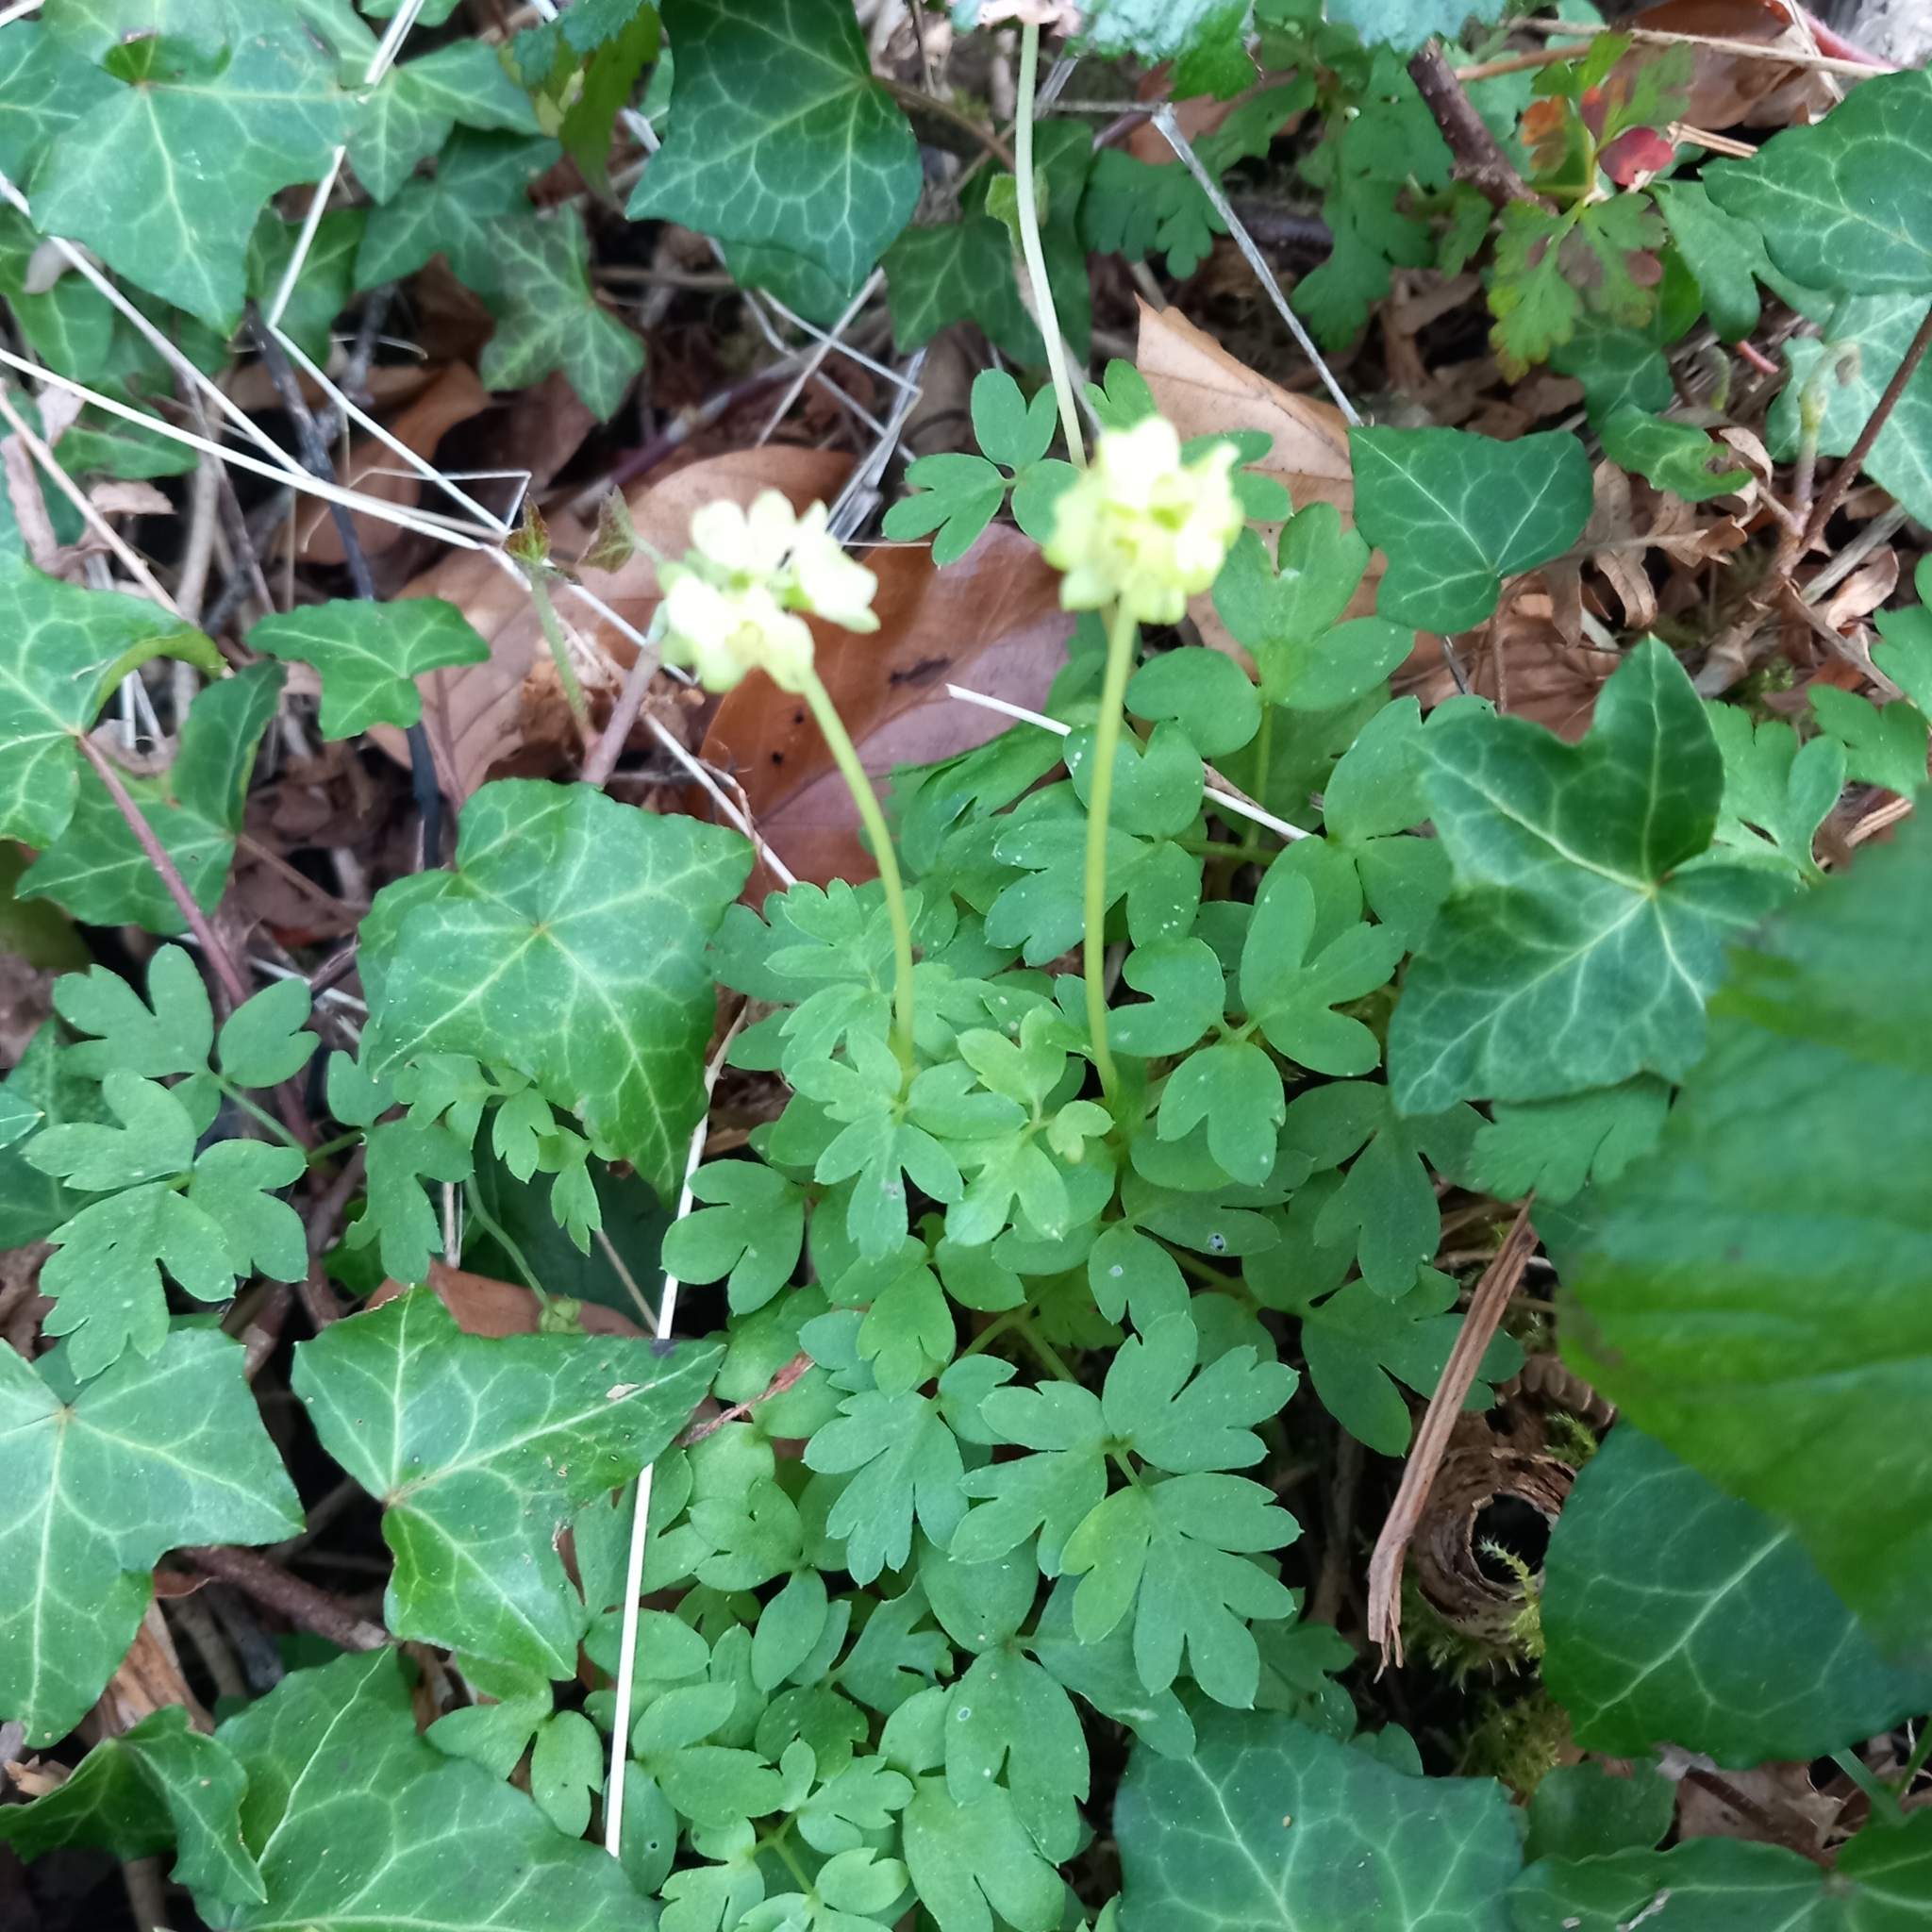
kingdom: Plantae
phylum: Tracheophyta
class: Magnoliopsida
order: Dipsacales
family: Viburnaceae
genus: Adoxa
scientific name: Adoxa moschatellina
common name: Moschatel
